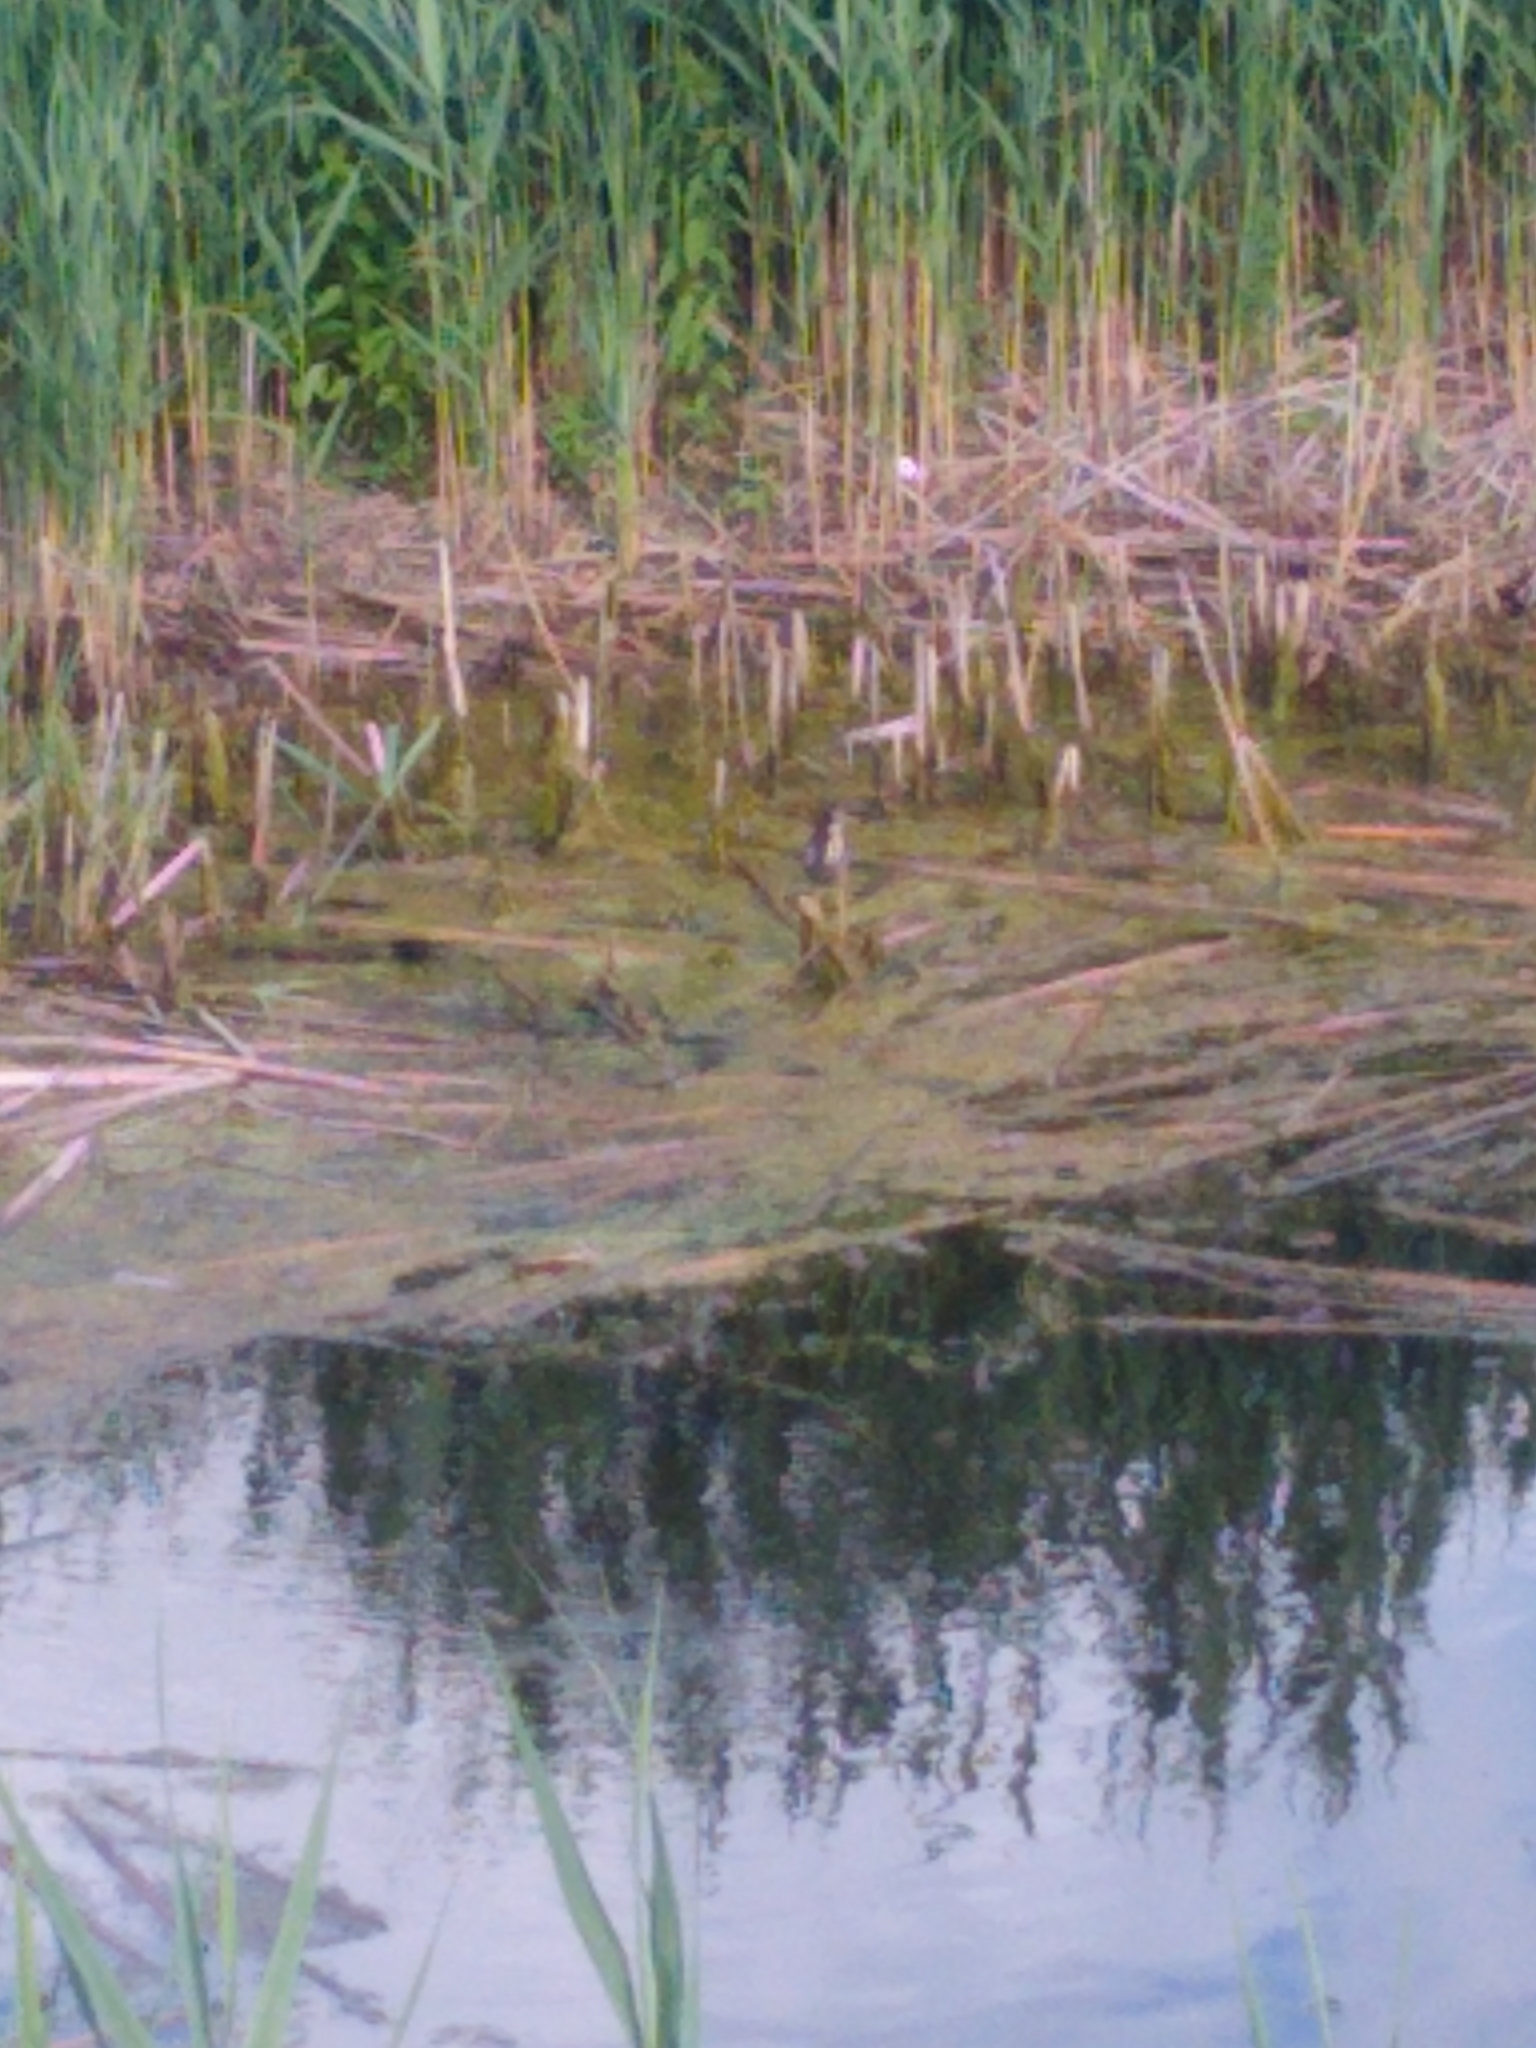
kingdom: Animalia
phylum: Chordata
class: Aves
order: Pelecaniformes
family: Ardeidae
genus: Butorides
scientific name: Butorides virescens
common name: Green heron
